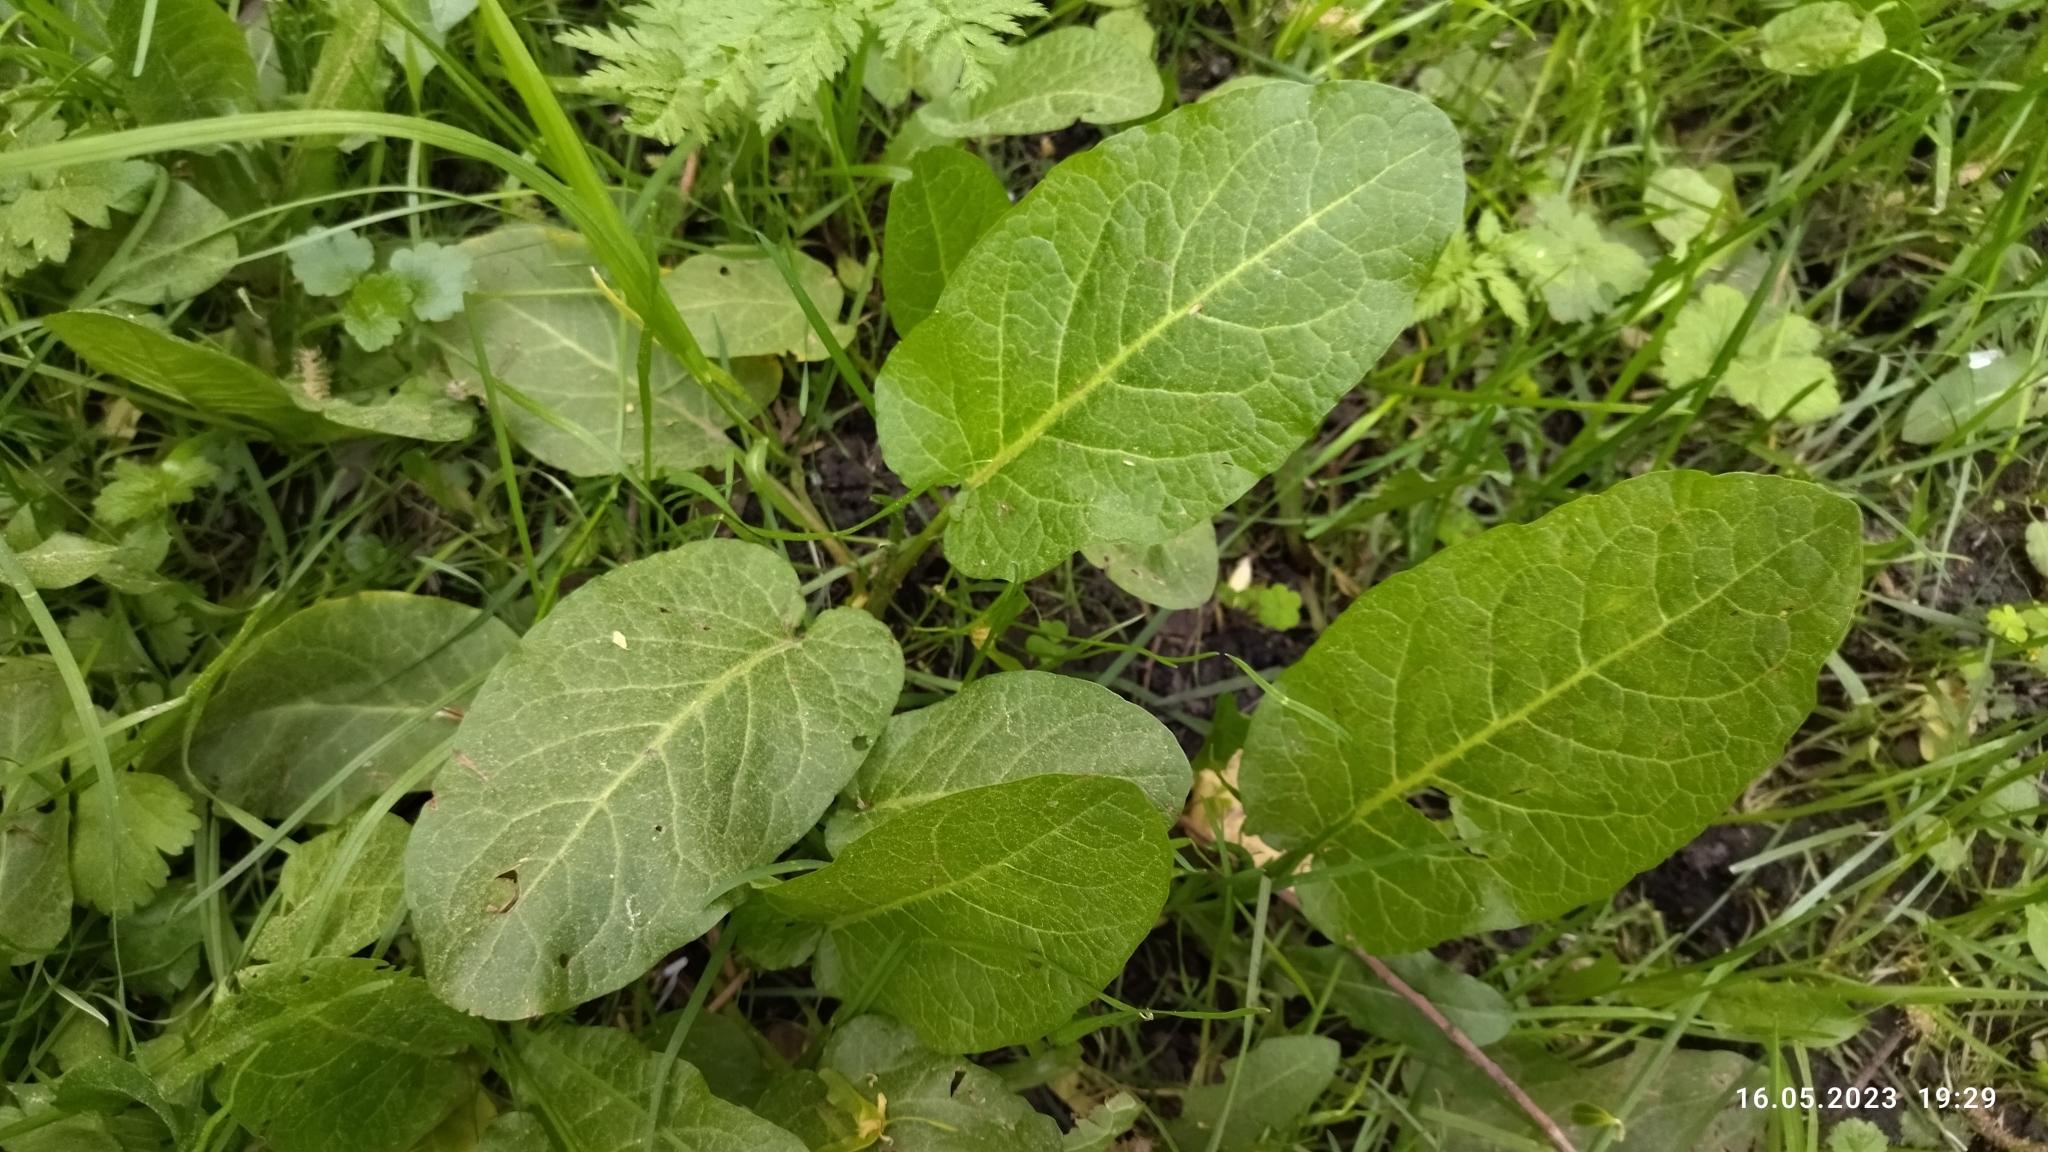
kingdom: Plantae
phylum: Tracheophyta
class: Magnoliopsida
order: Caryophyllales
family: Polygonaceae
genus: Rumex
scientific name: Rumex obtusifolius
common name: Bitter dock
